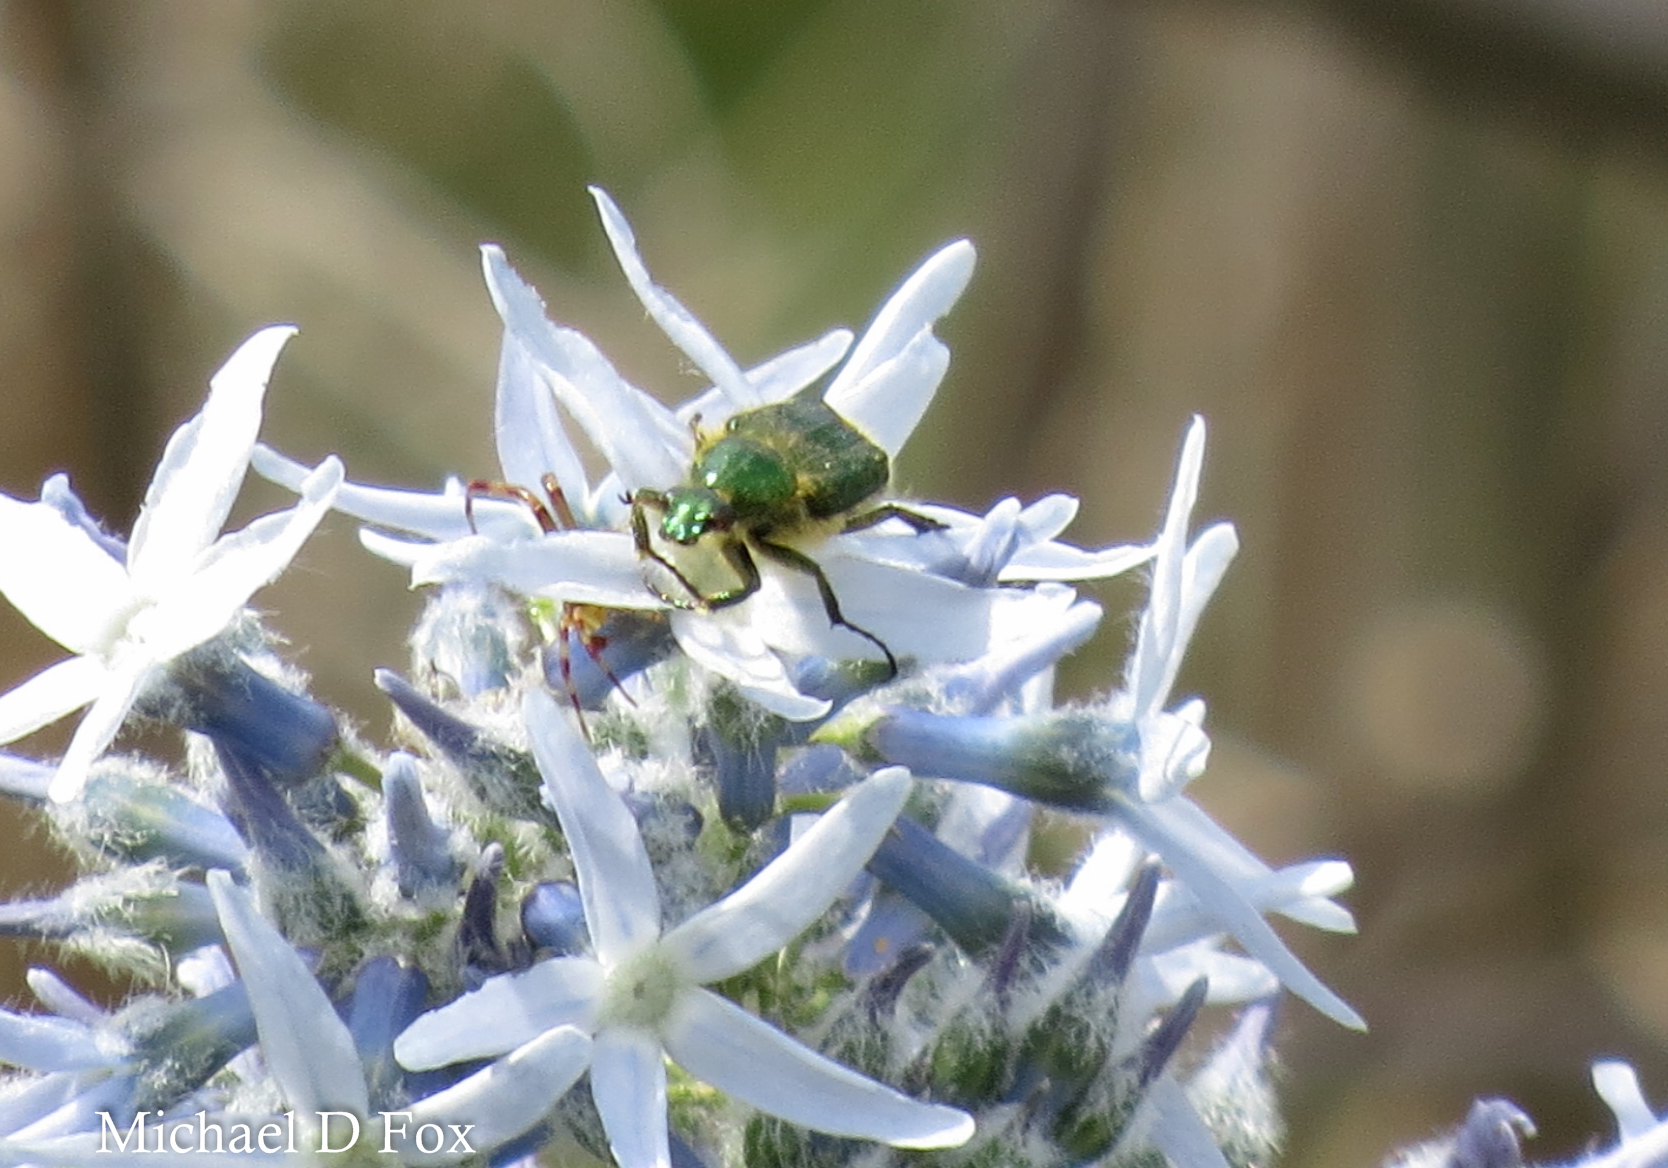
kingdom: Animalia
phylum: Arthropoda
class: Insecta
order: Coleoptera
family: Scarabaeidae
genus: Trichiotinus
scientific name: Trichiotinus lunulatus
